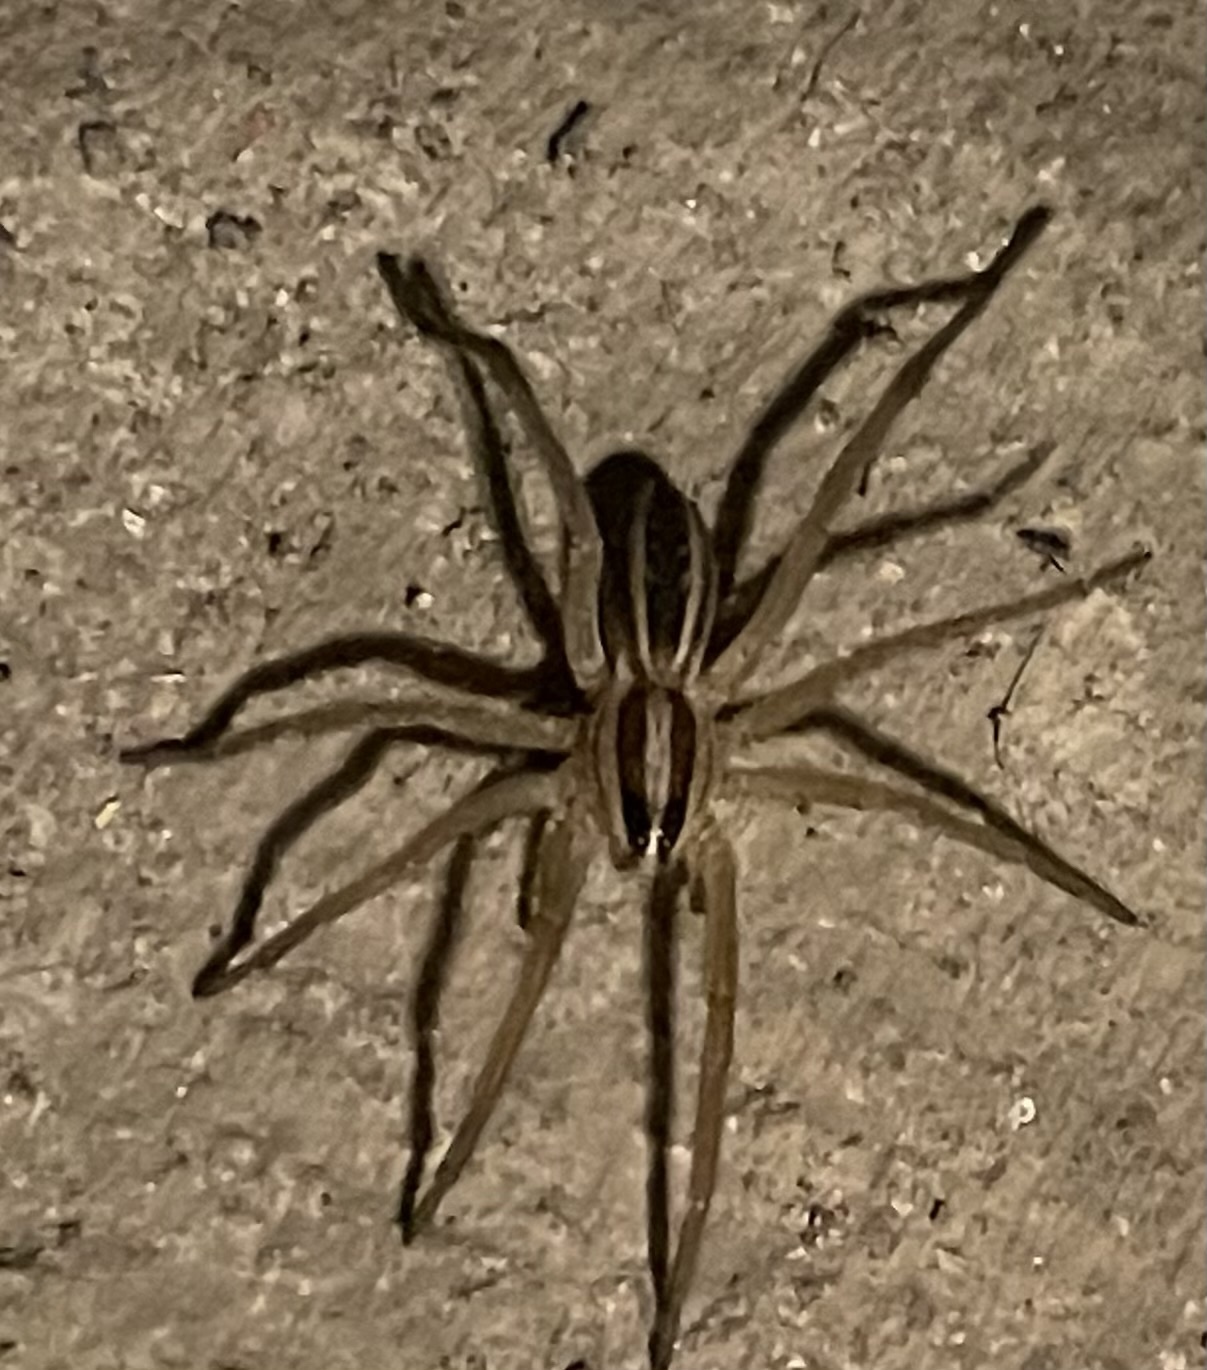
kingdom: Animalia
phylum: Arthropoda
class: Arachnida
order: Araneae
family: Lycosidae
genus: Rabidosa
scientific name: Rabidosa rabida
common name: Rabid wolf spider
